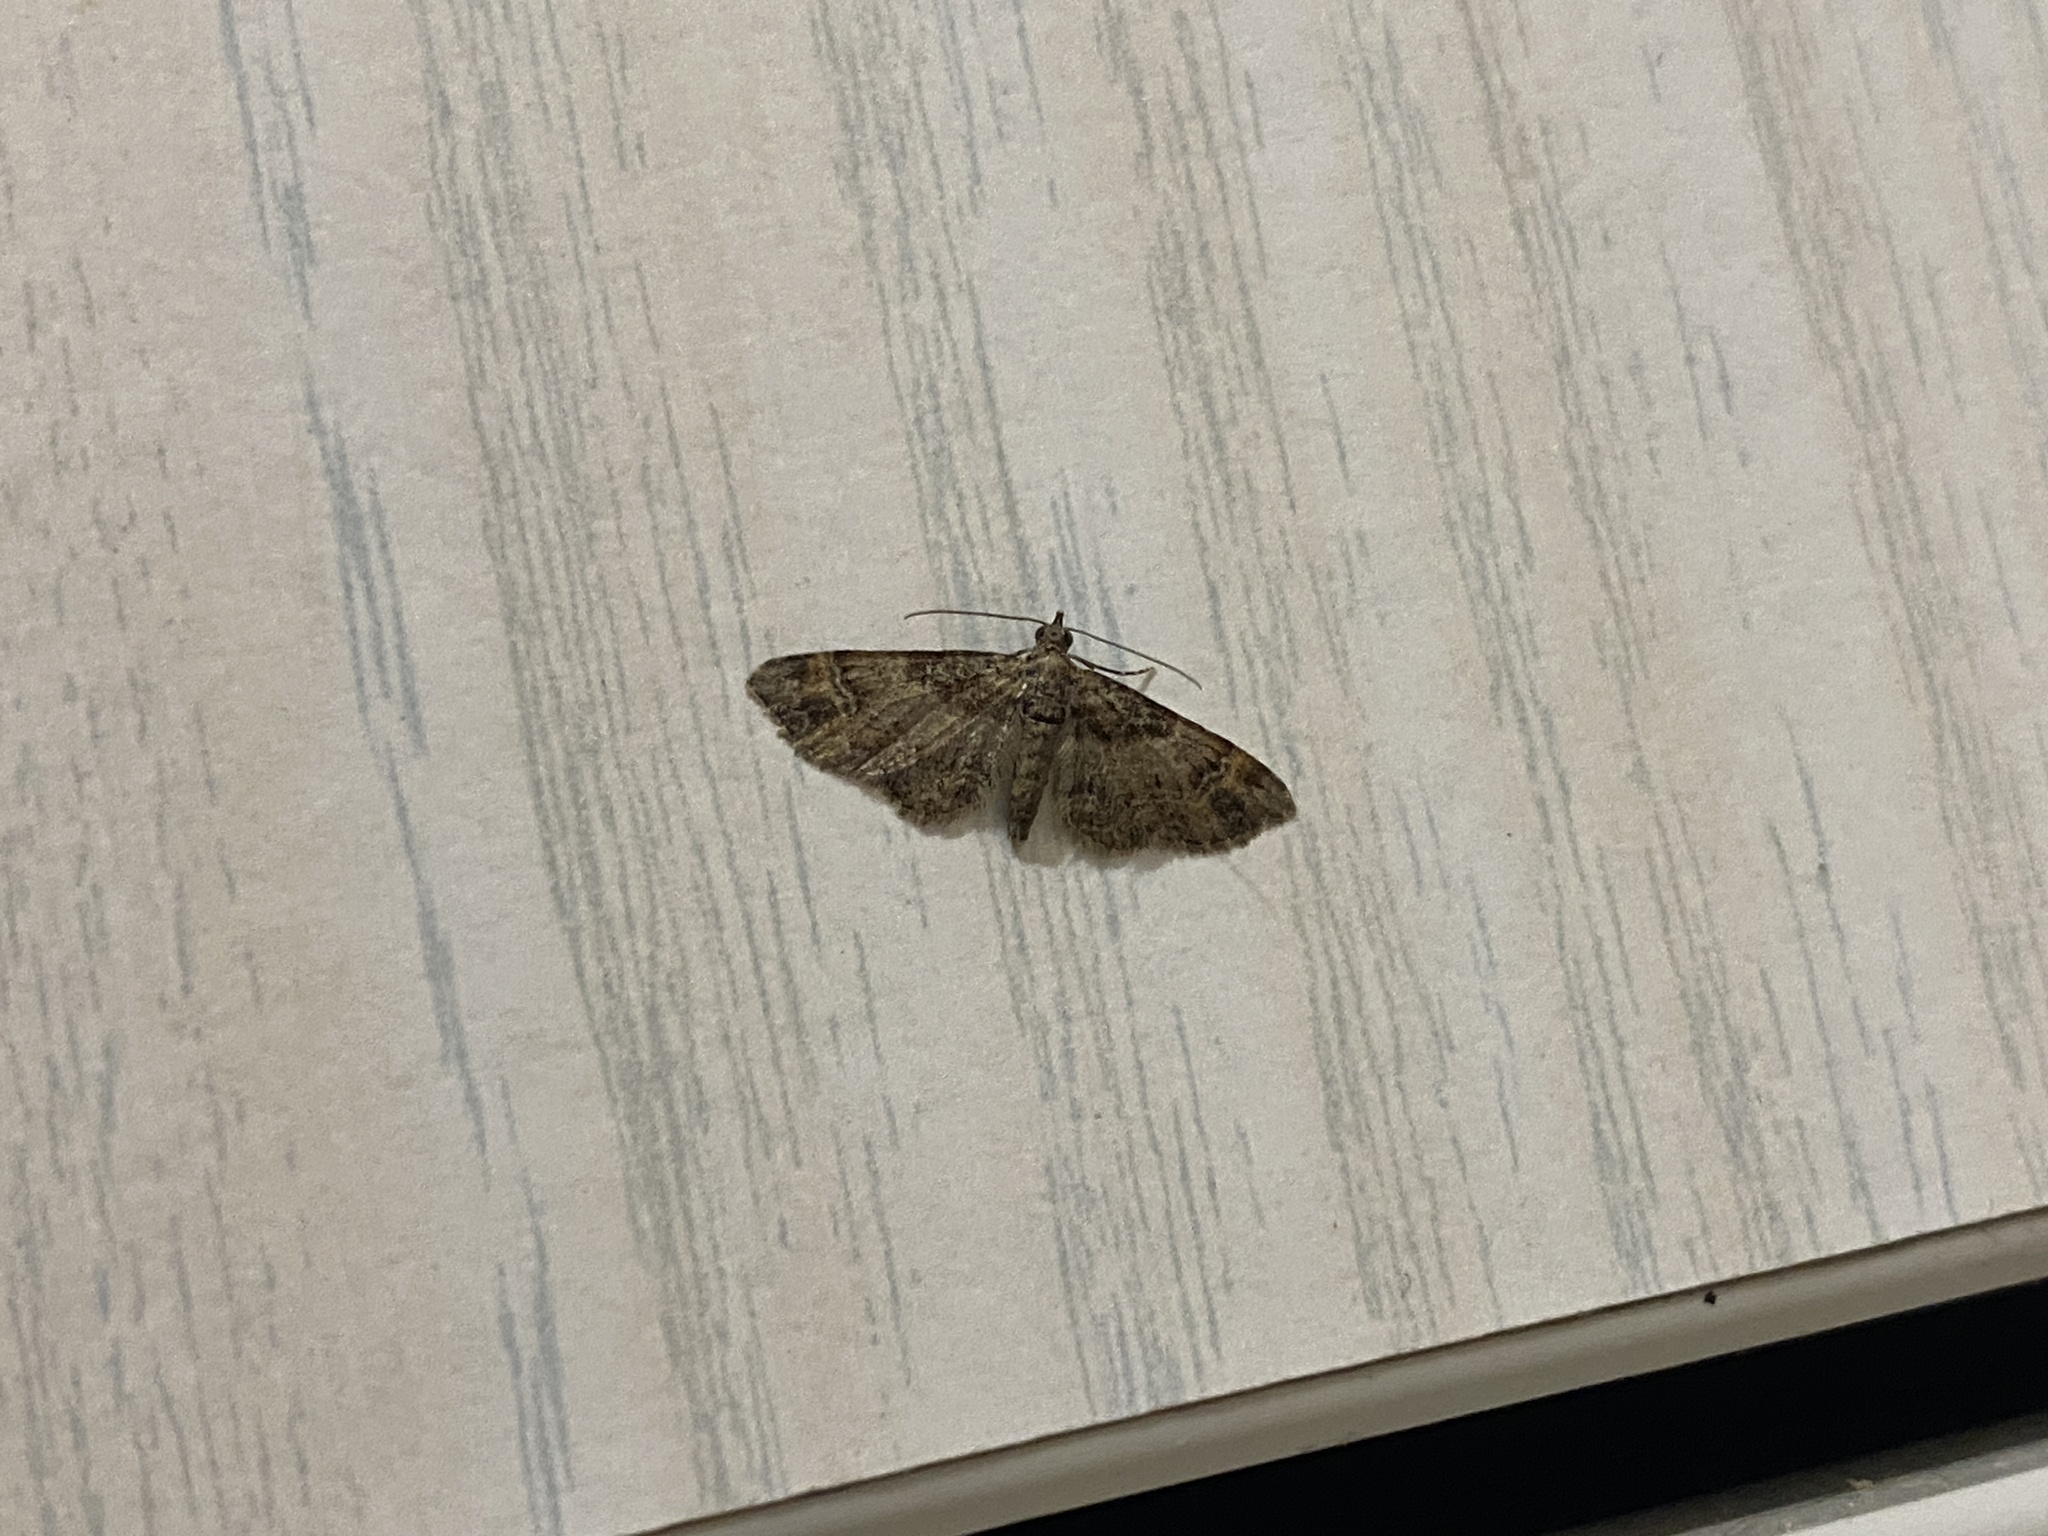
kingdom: Animalia
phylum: Arthropoda
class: Insecta
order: Lepidoptera
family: Geometridae
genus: Gymnoscelis
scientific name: Gymnoscelis rufifasciata
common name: Double-striped pug
